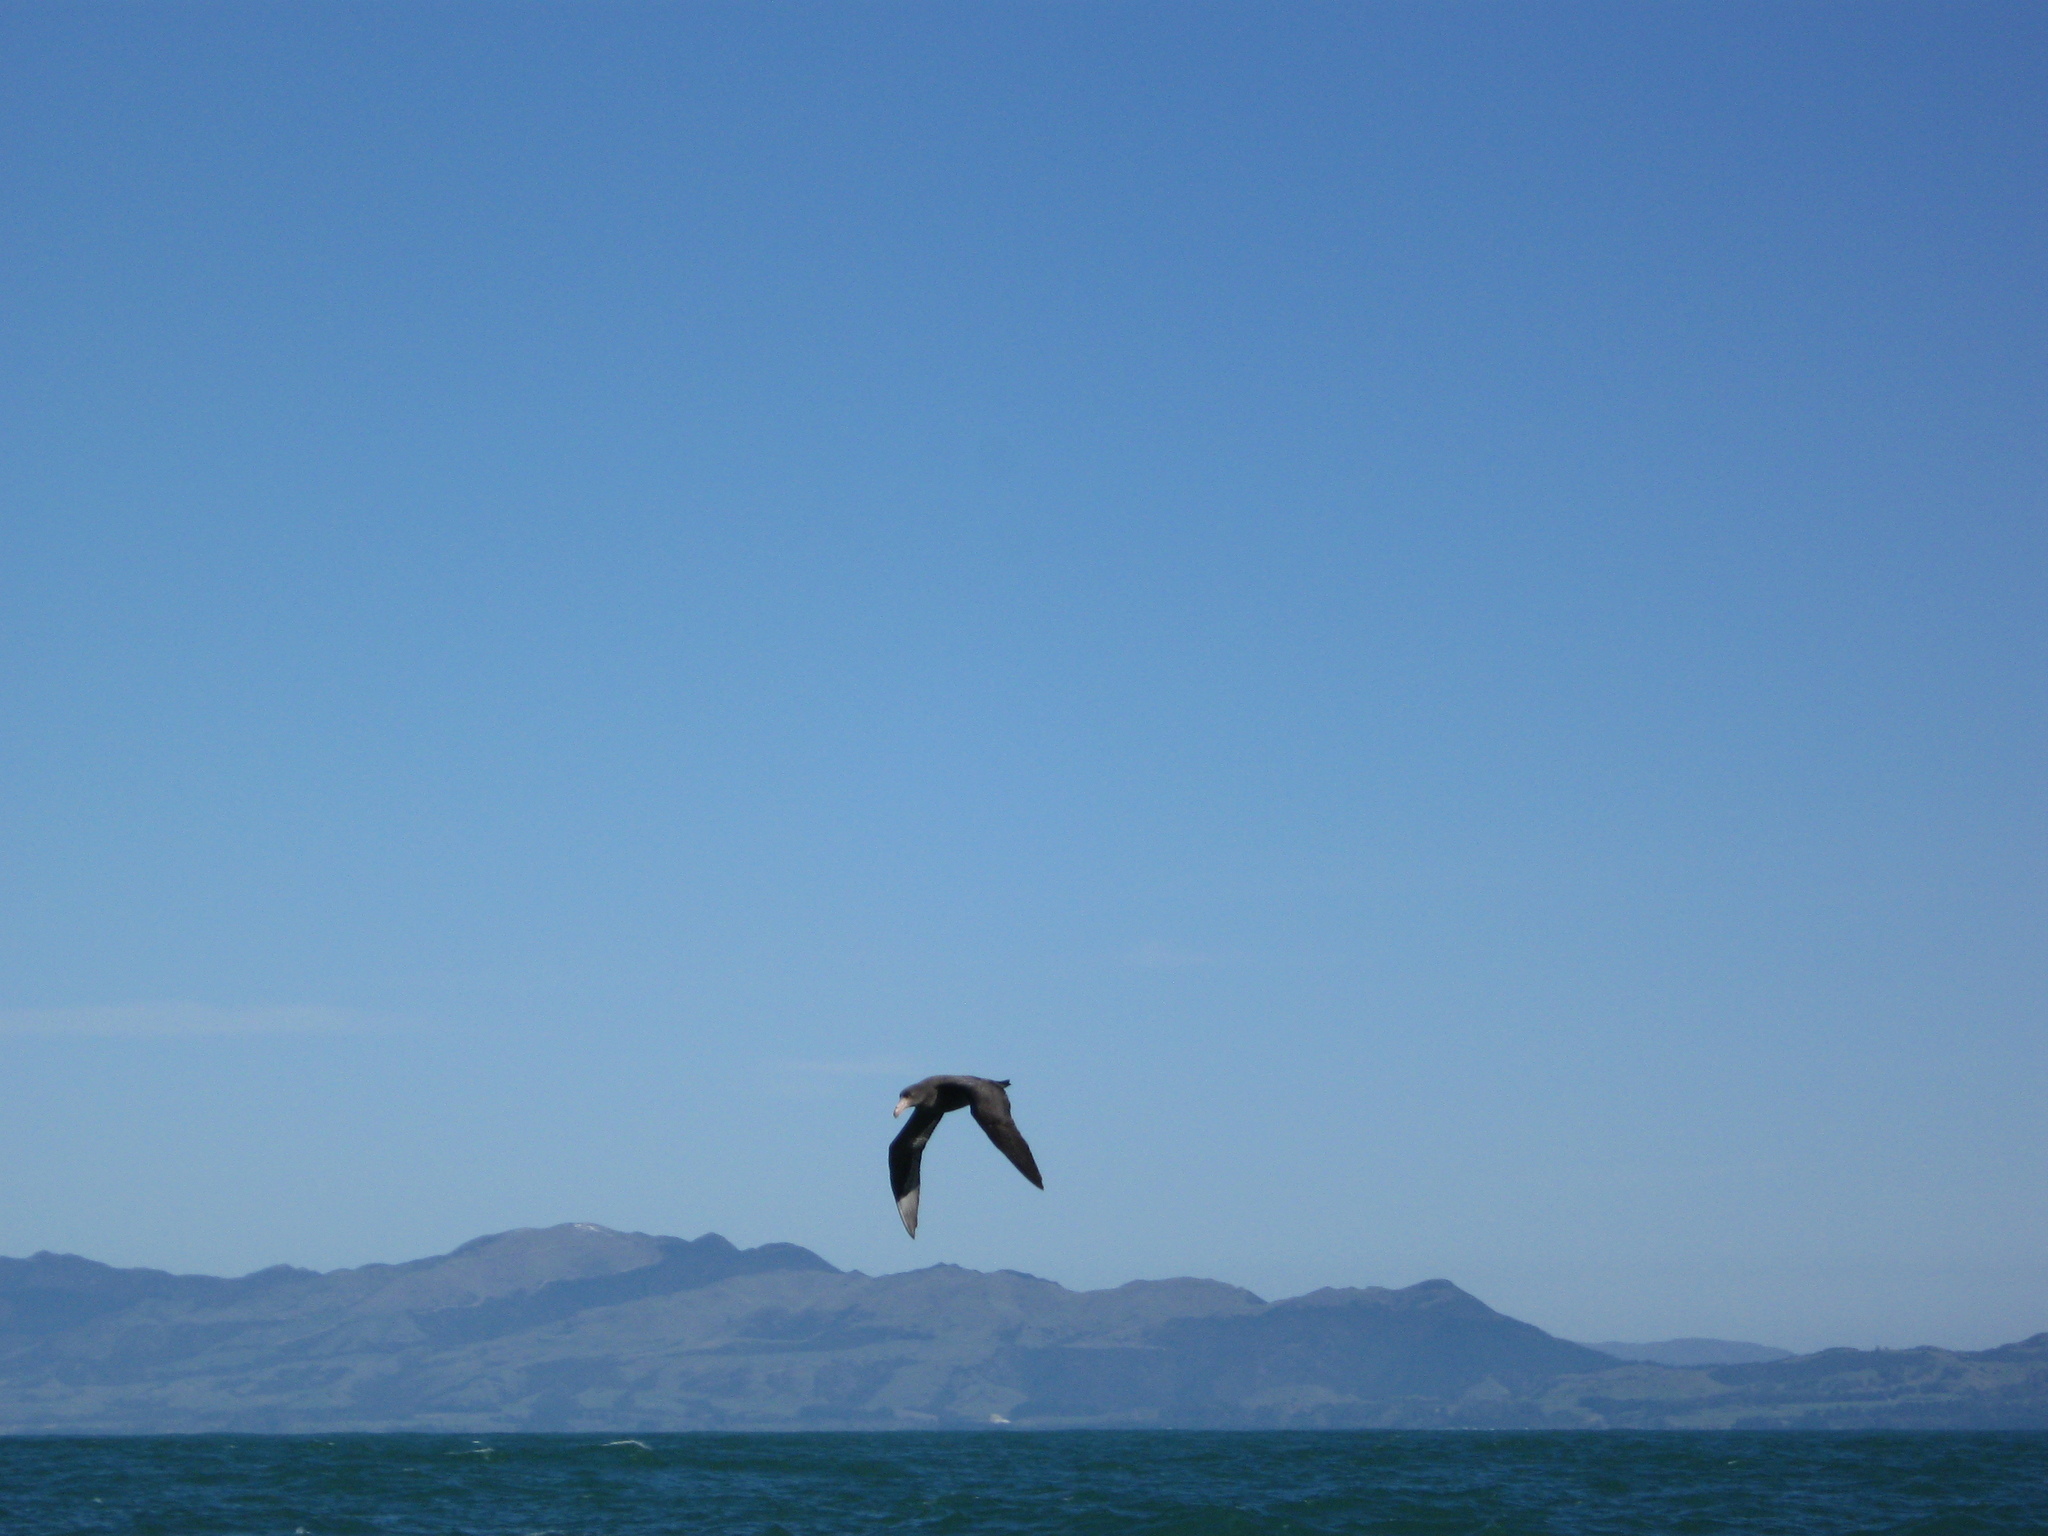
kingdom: Animalia
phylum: Chordata
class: Aves
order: Procellariiformes
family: Procellariidae
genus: Macronectes
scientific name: Macronectes halli
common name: Northern giant petrel
